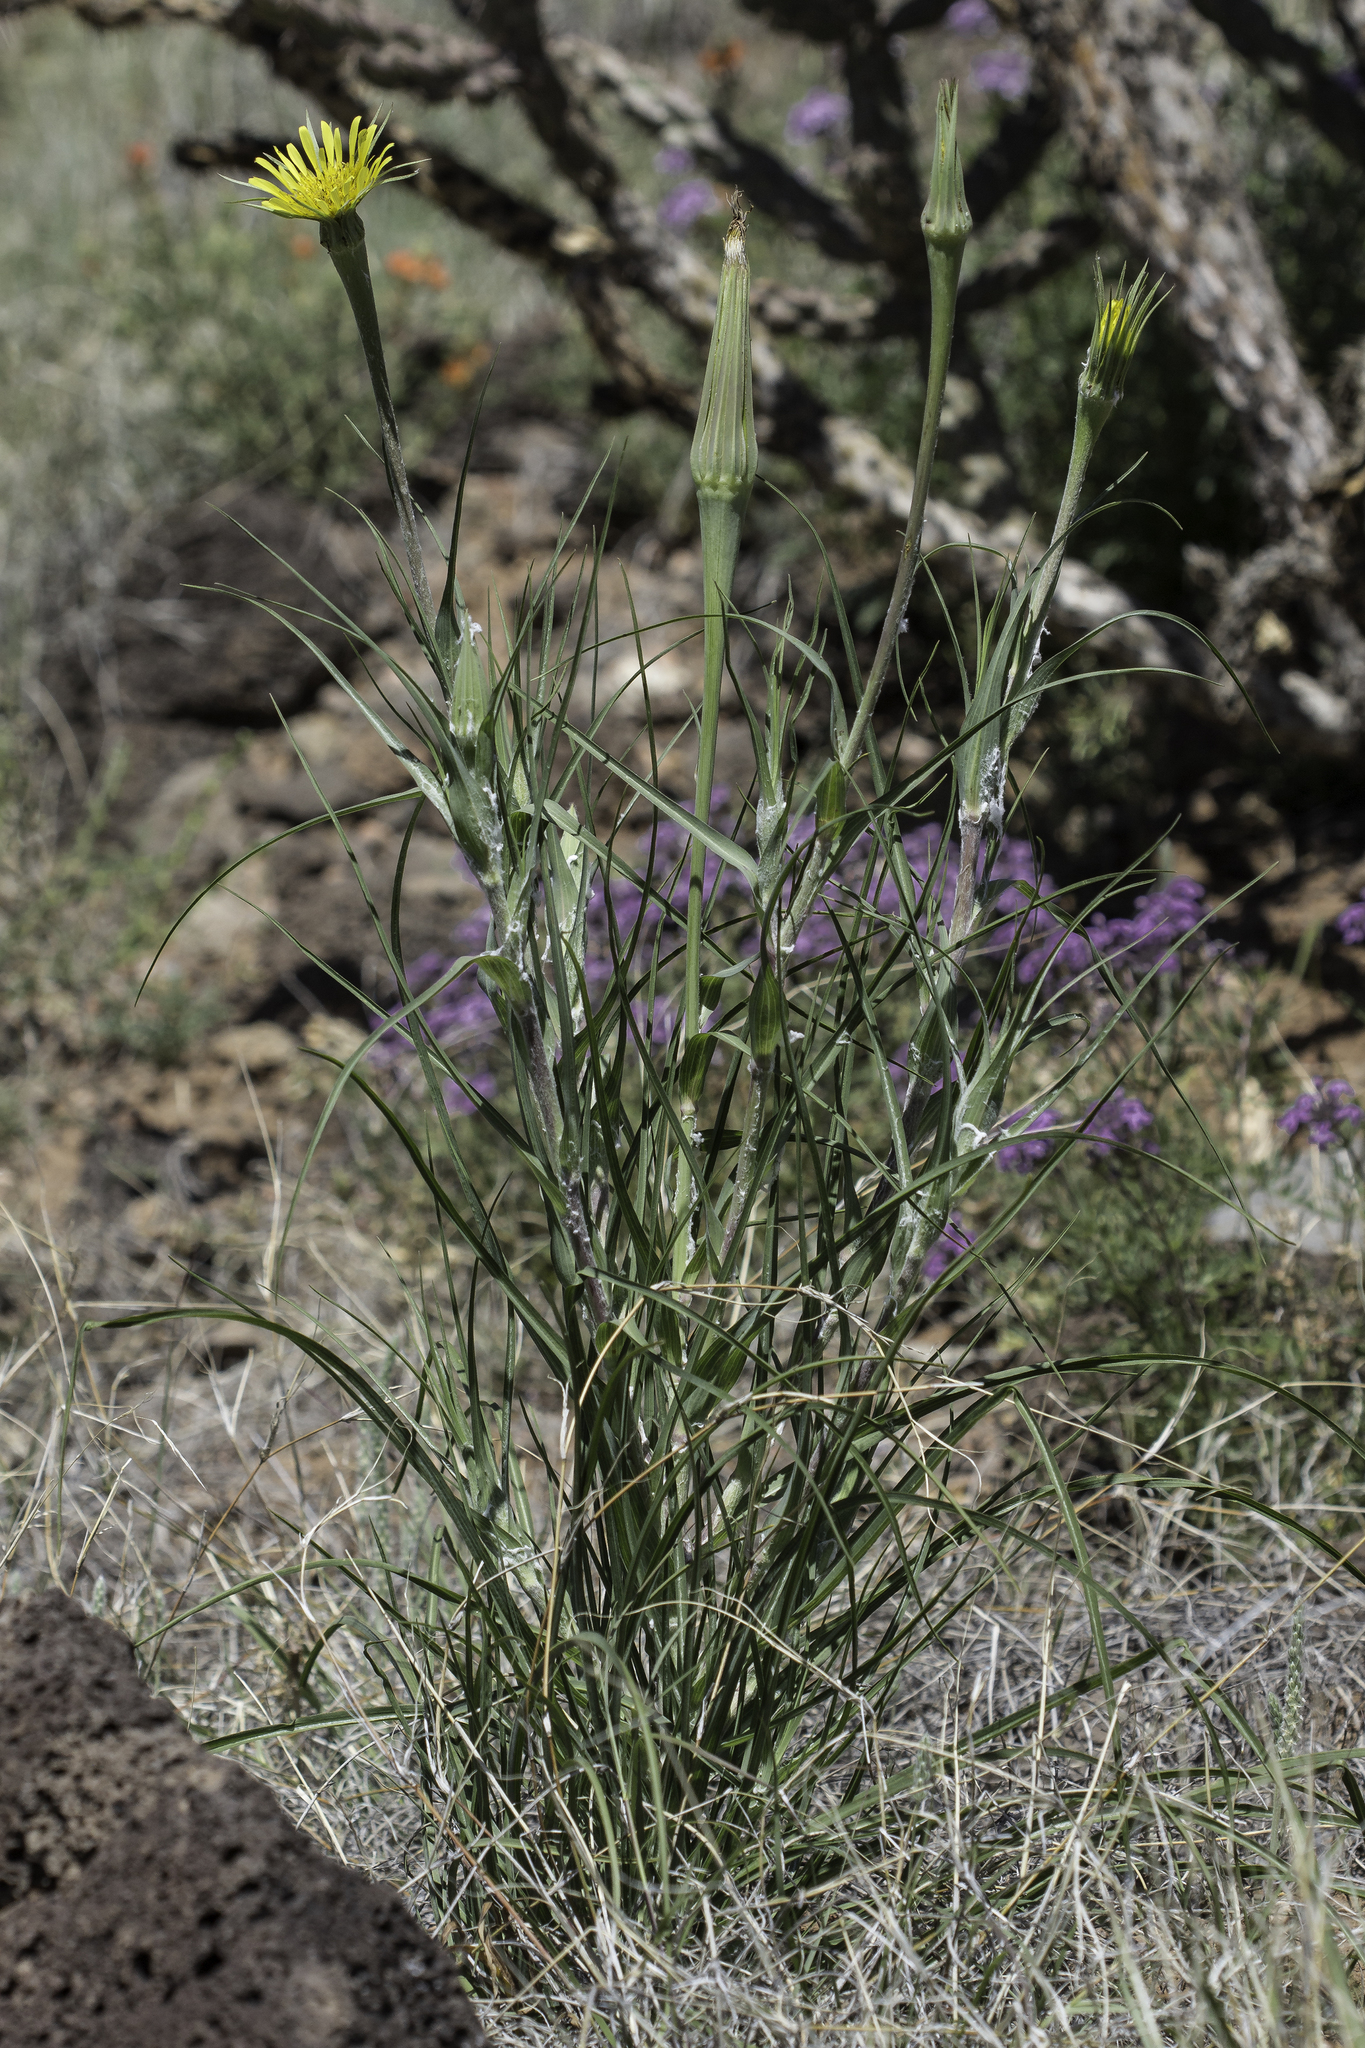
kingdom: Plantae
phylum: Tracheophyta
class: Magnoliopsida
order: Asterales
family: Asteraceae
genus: Tragopogon
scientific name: Tragopogon dubius
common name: Yellow salsify
